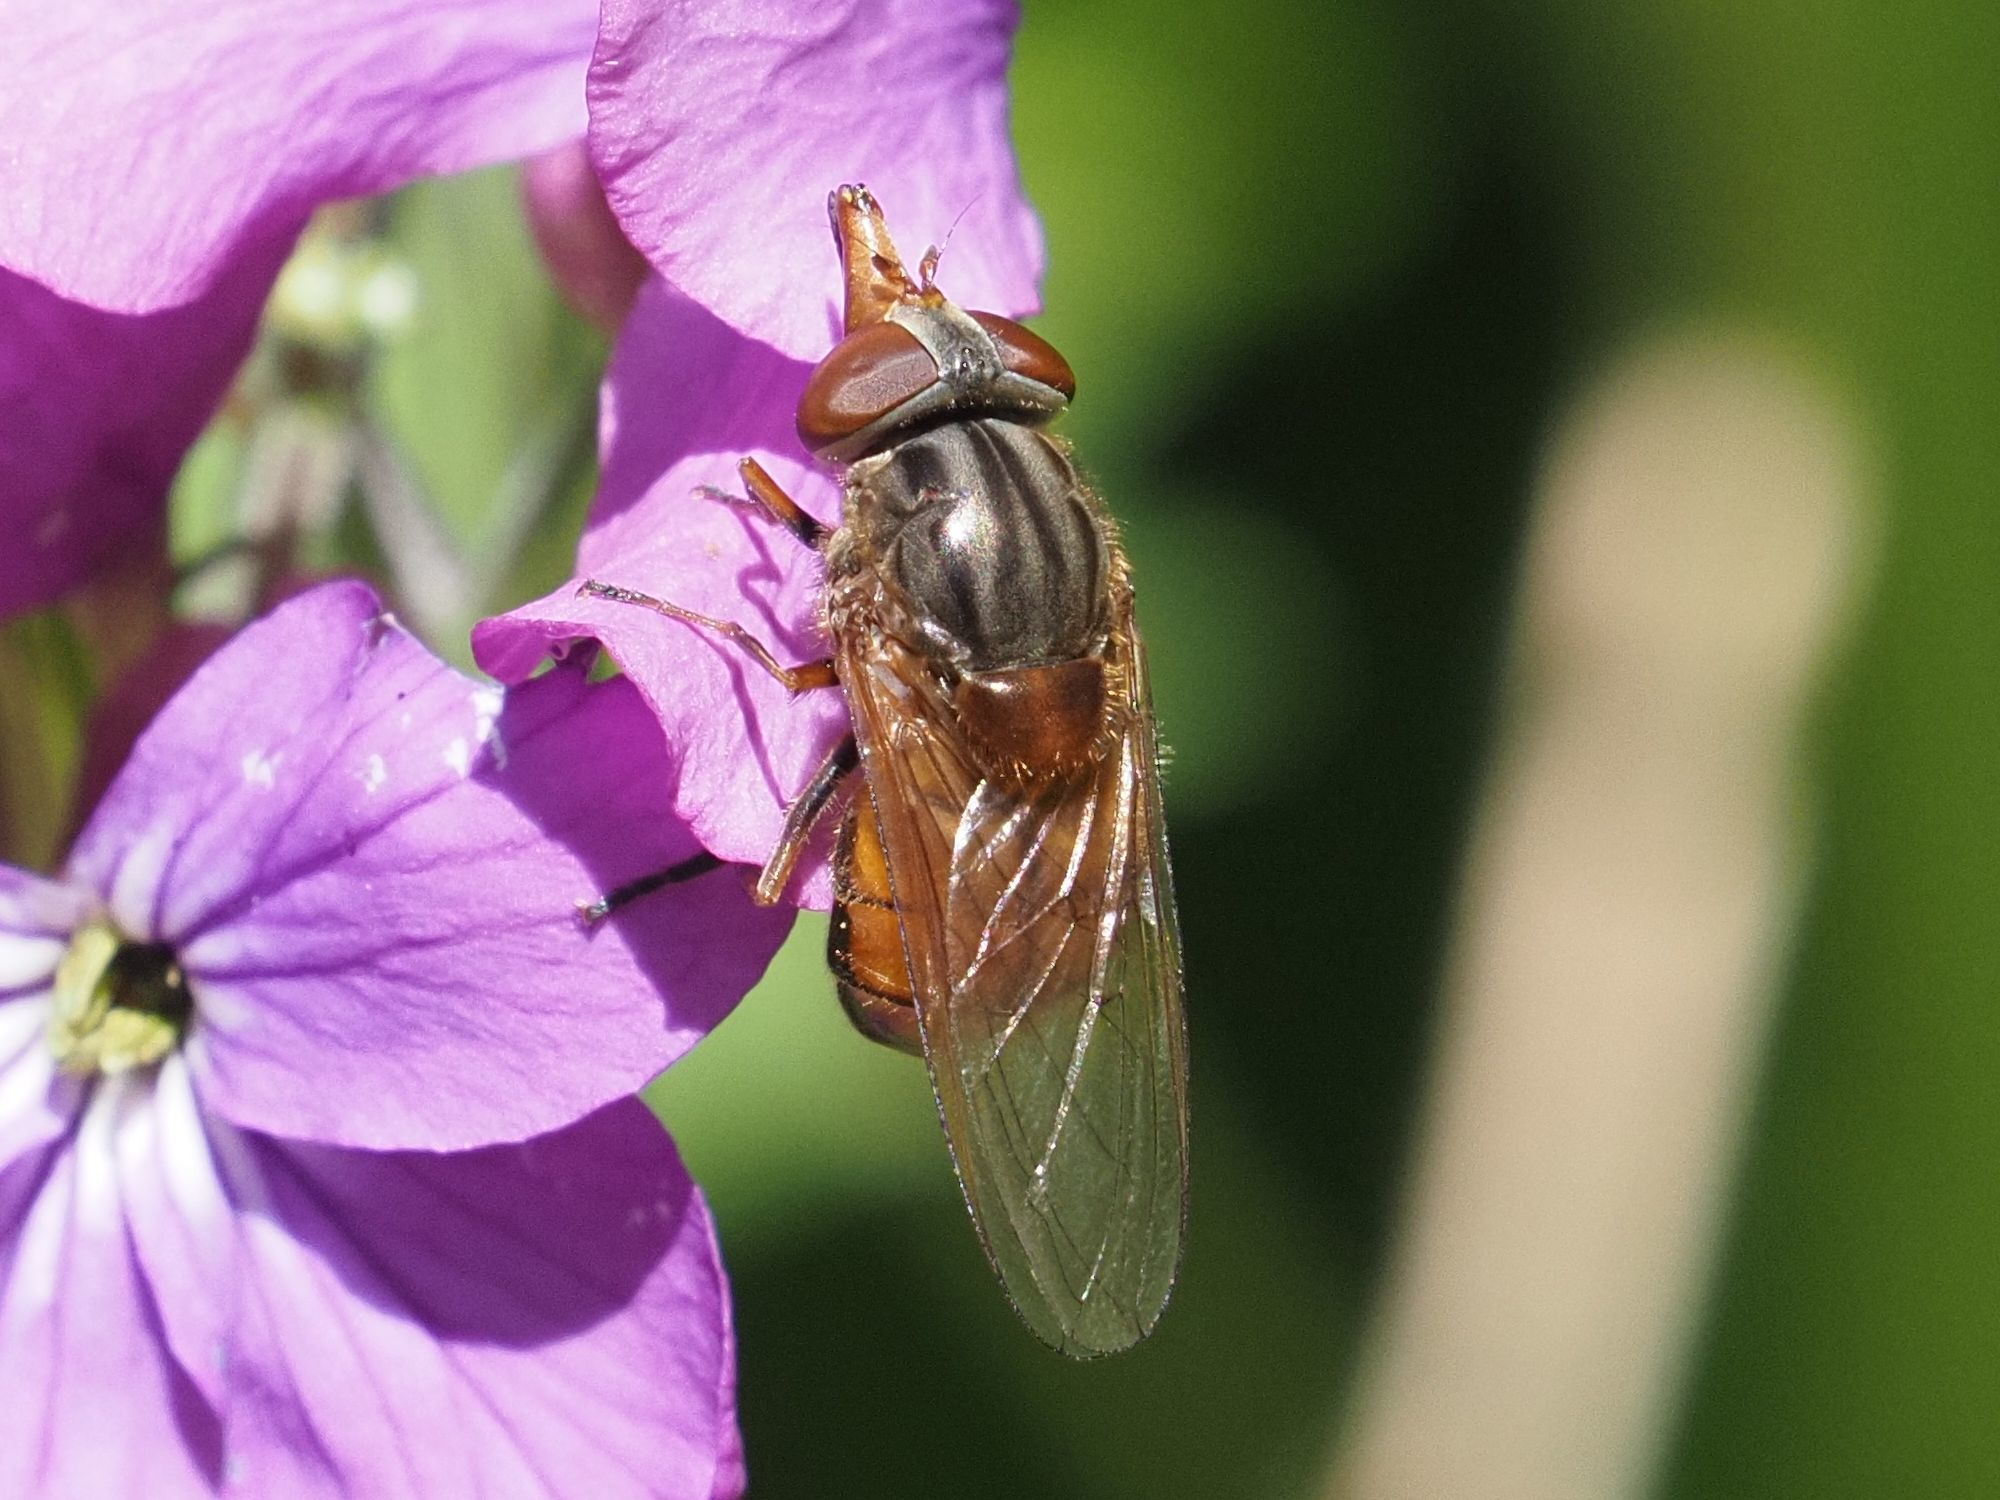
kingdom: Animalia
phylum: Arthropoda
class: Insecta
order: Diptera
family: Syrphidae
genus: Rhingia
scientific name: Rhingia campestris
